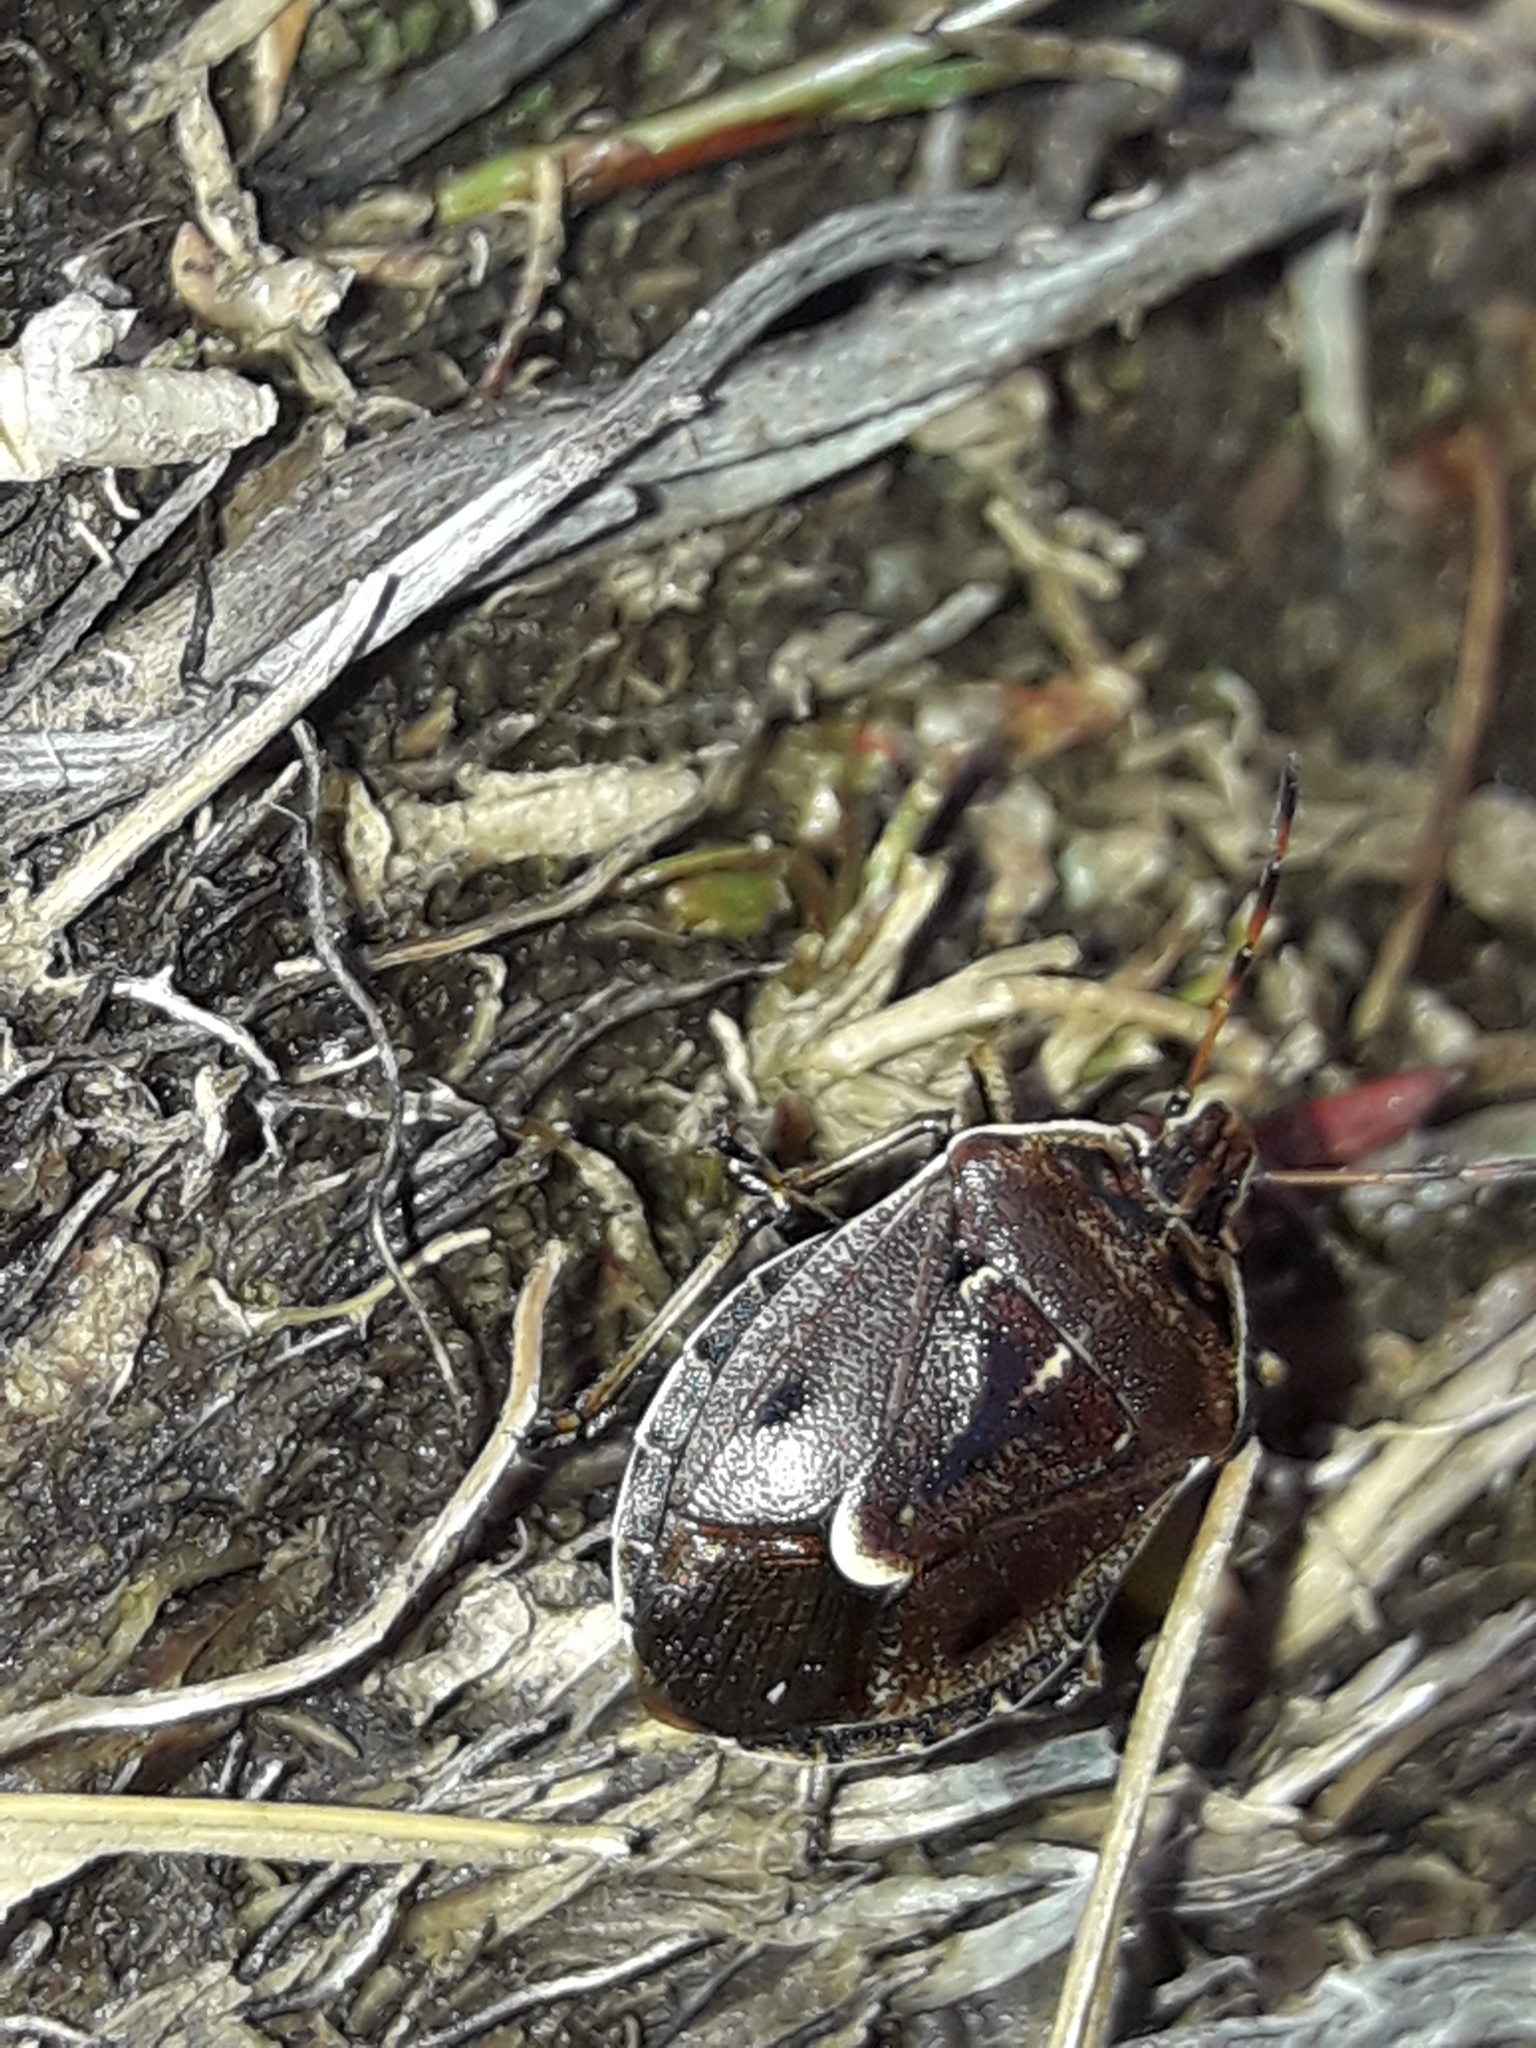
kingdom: Animalia
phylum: Arthropoda
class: Insecta
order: Hemiptera
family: Pentatomidae
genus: Cermatulus
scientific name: Cermatulus nasalis
